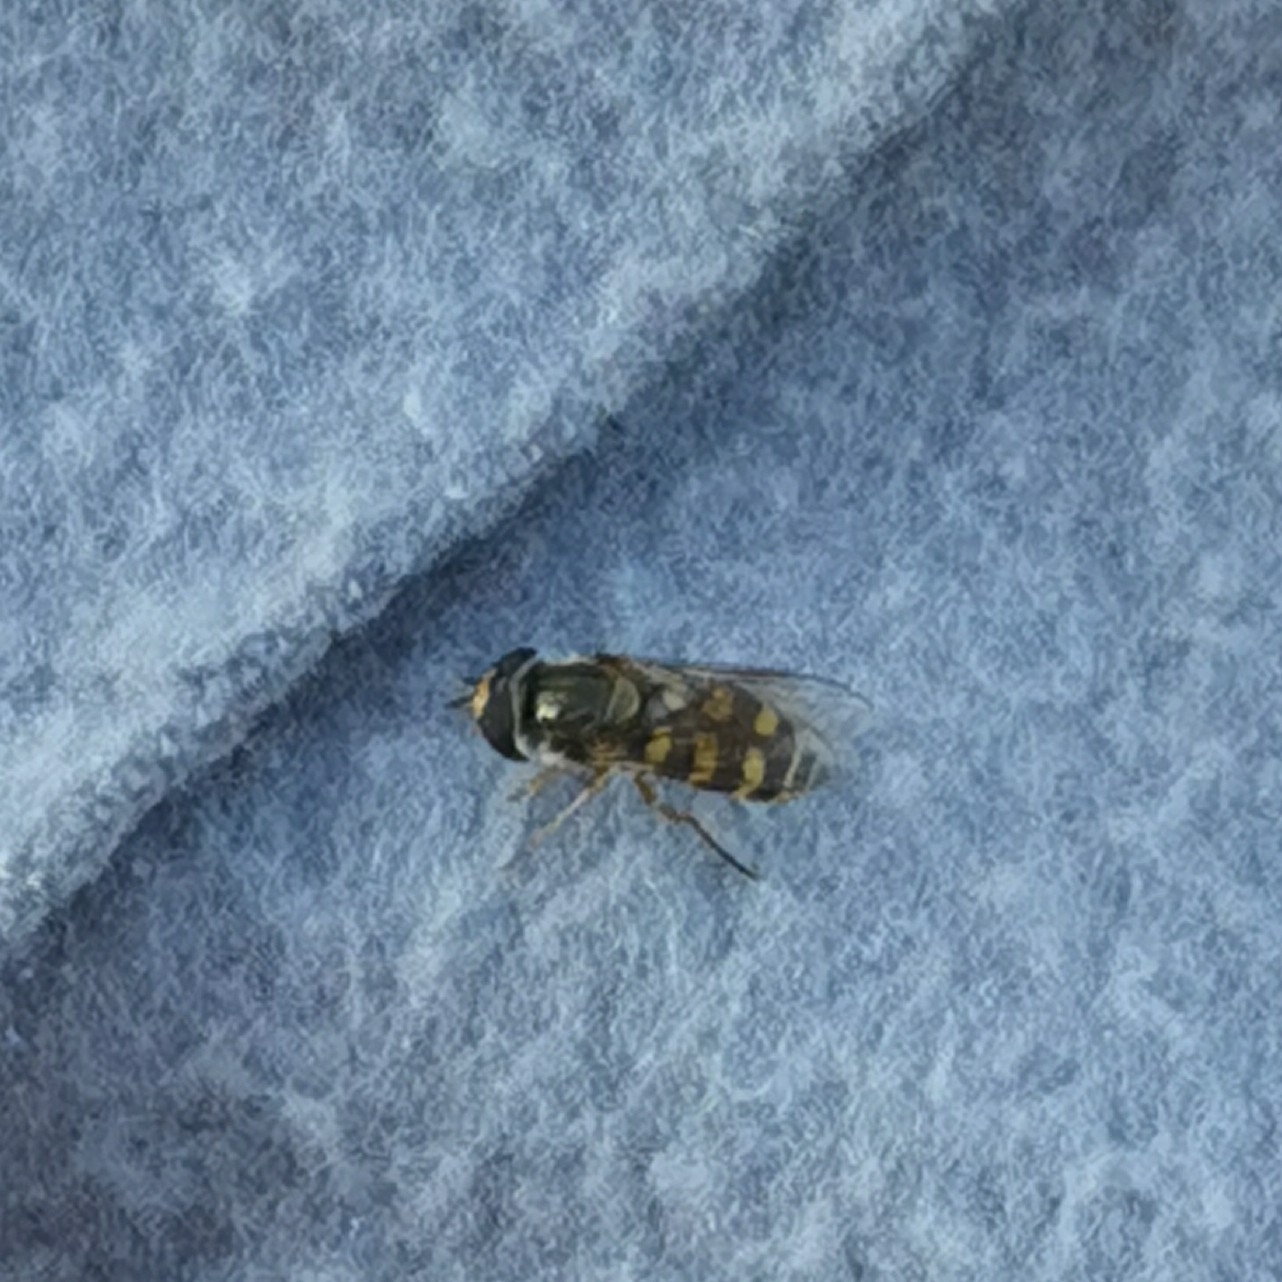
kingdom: Animalia
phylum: Arthropoda
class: Insecta
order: Diptera
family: Syrphidae
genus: Eupeodes
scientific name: Eupeodes corollae
